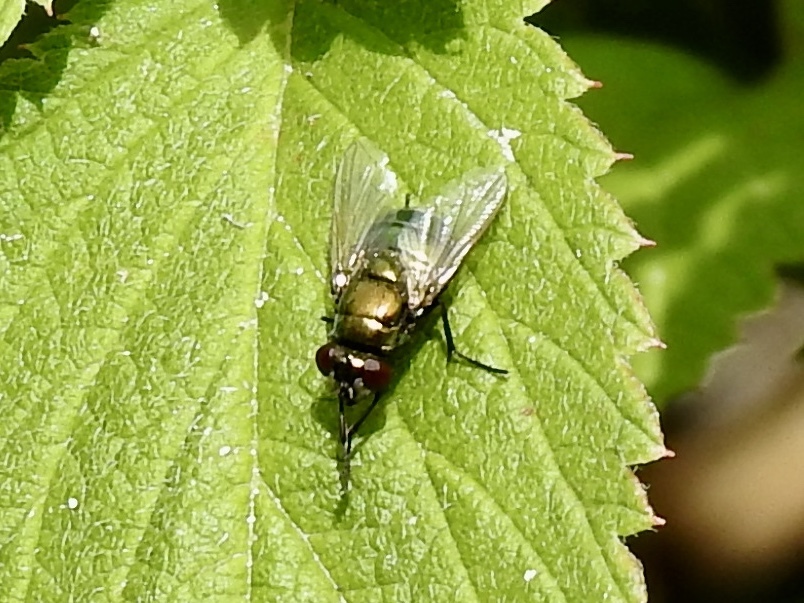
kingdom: Animalia
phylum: Arthropoda
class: Insecta
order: Diptera
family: Muscidae
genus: Neomyia
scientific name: Neomyia cornicina
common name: House fly
